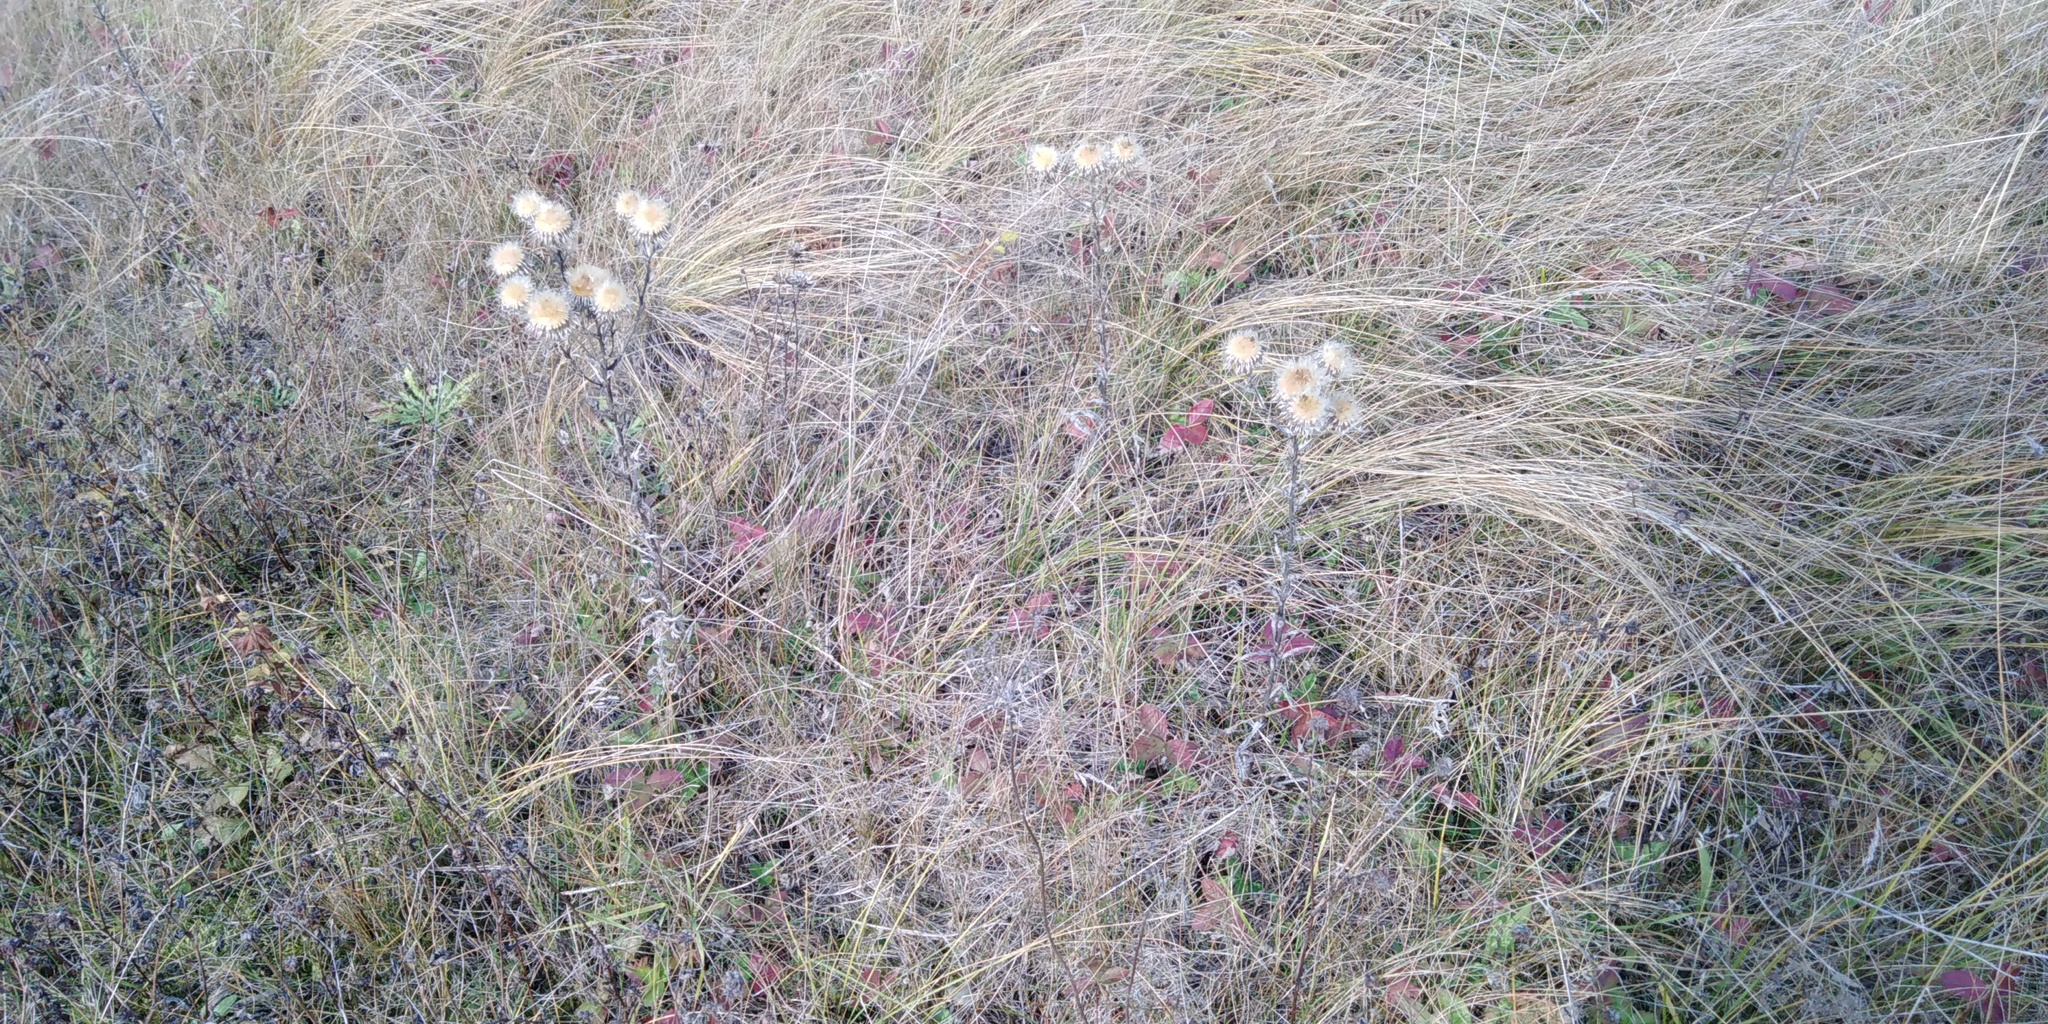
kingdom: Plantae
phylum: Tracheophyta
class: Magnoliopsida
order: Asterales
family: Asteraceae
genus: Carlina
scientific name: Carlina biebersteinii
